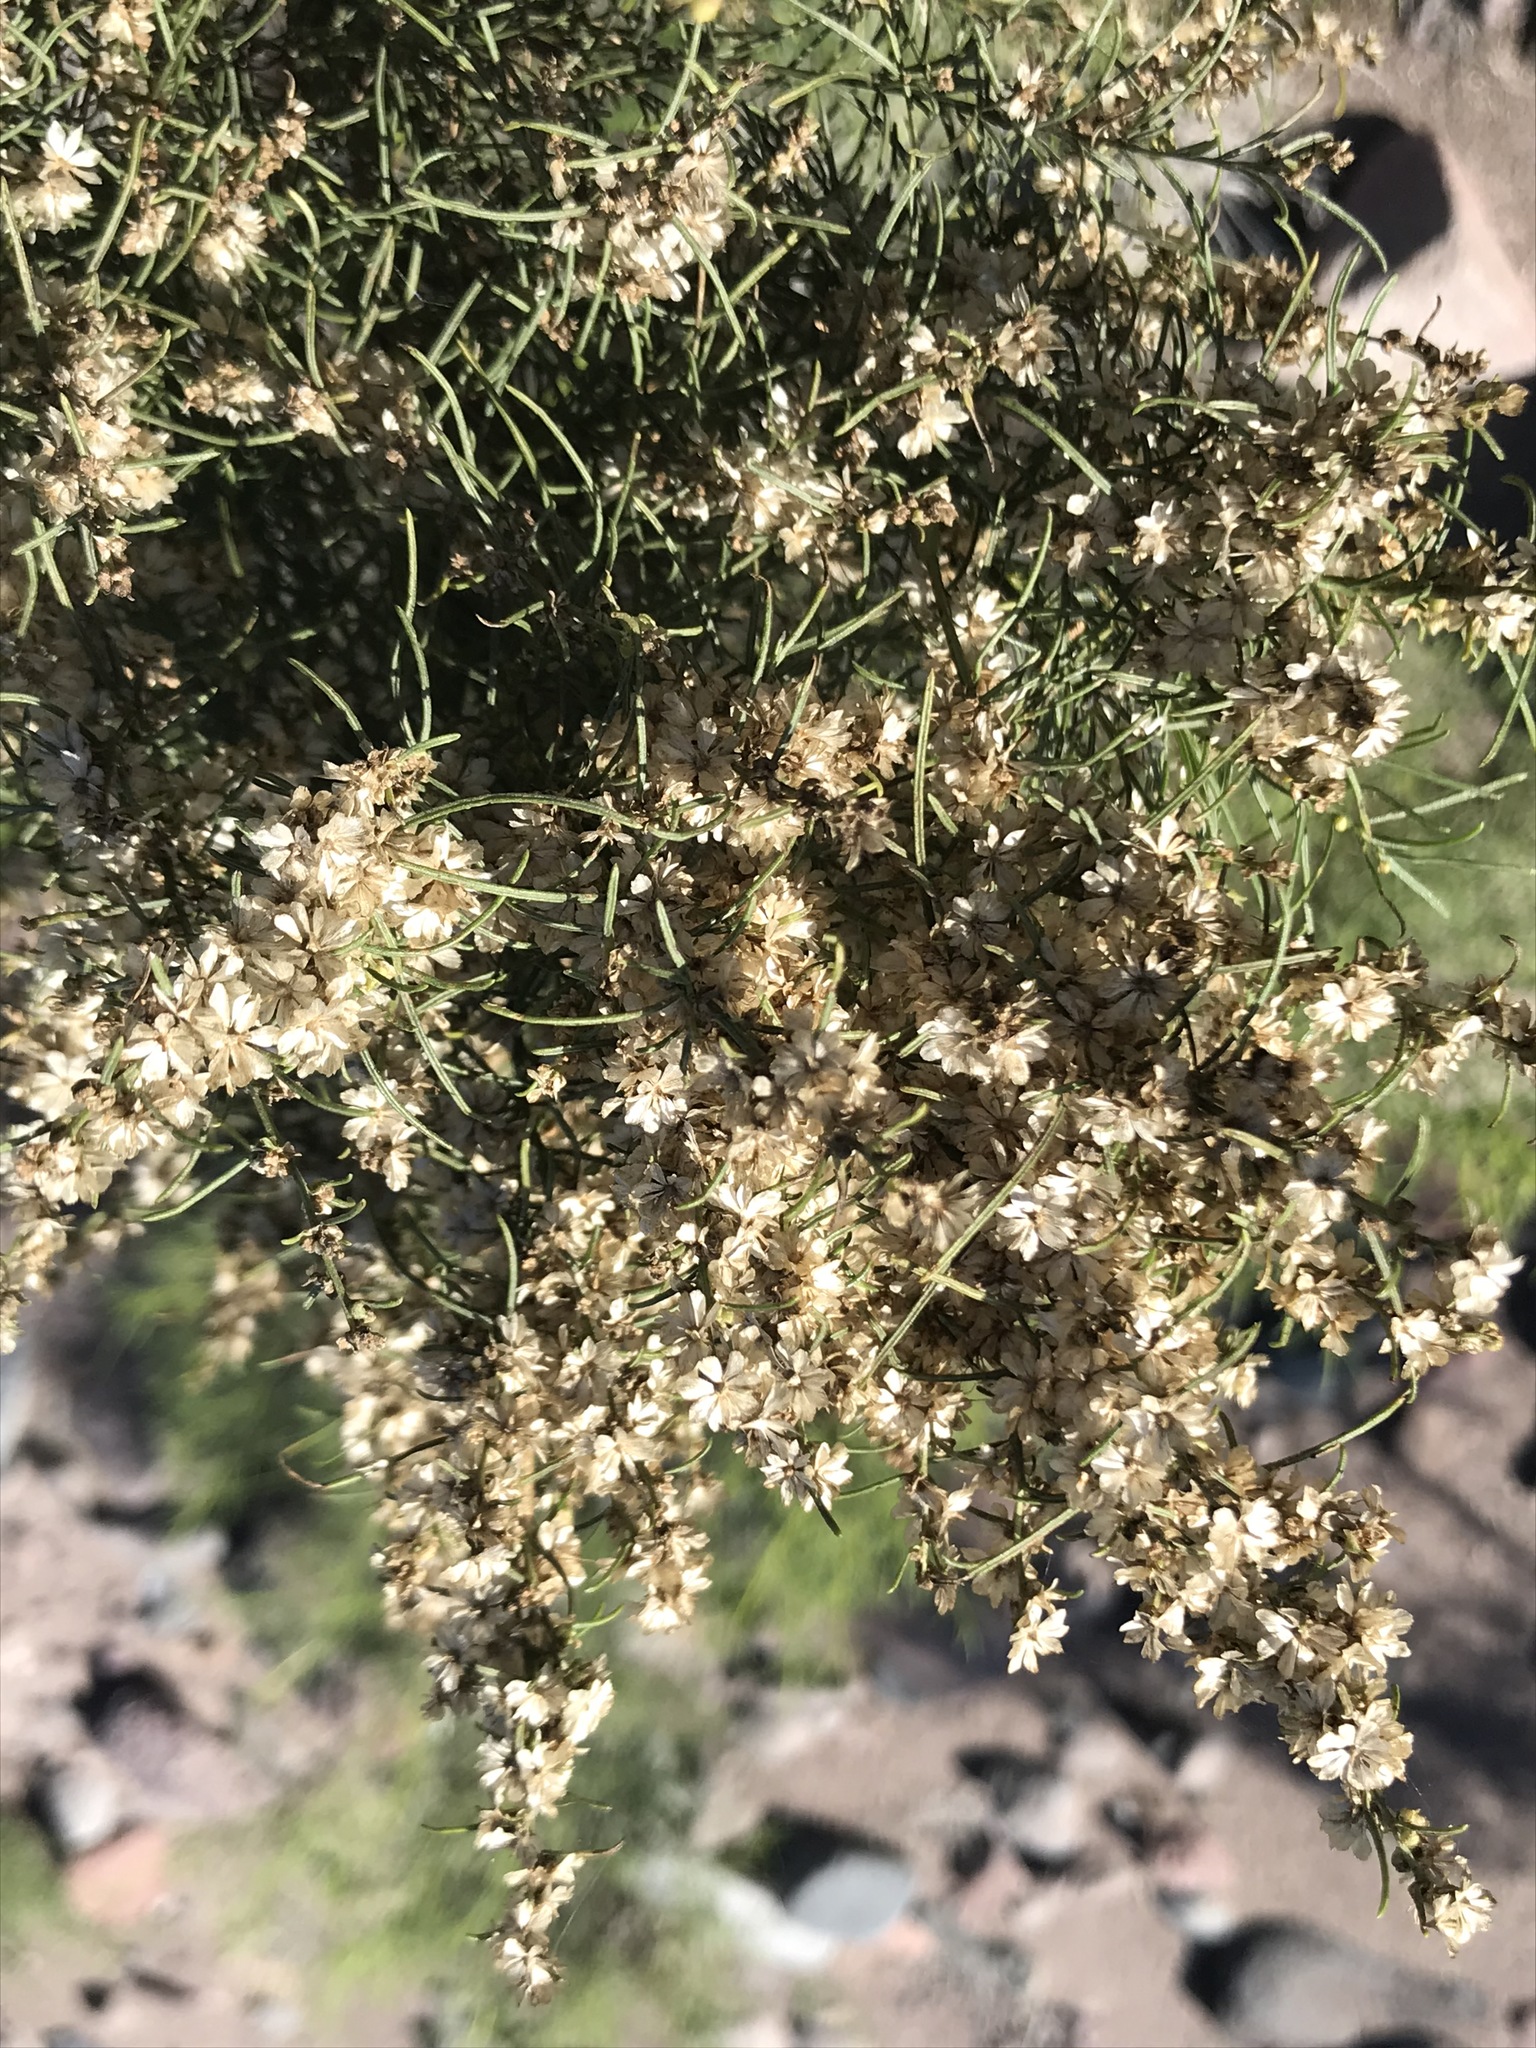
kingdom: Plantae
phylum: Tracheophyta
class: Magnoliopsida
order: Asterales
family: Asteraceae
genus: Ambrosia
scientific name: Ambrosia monogyra
